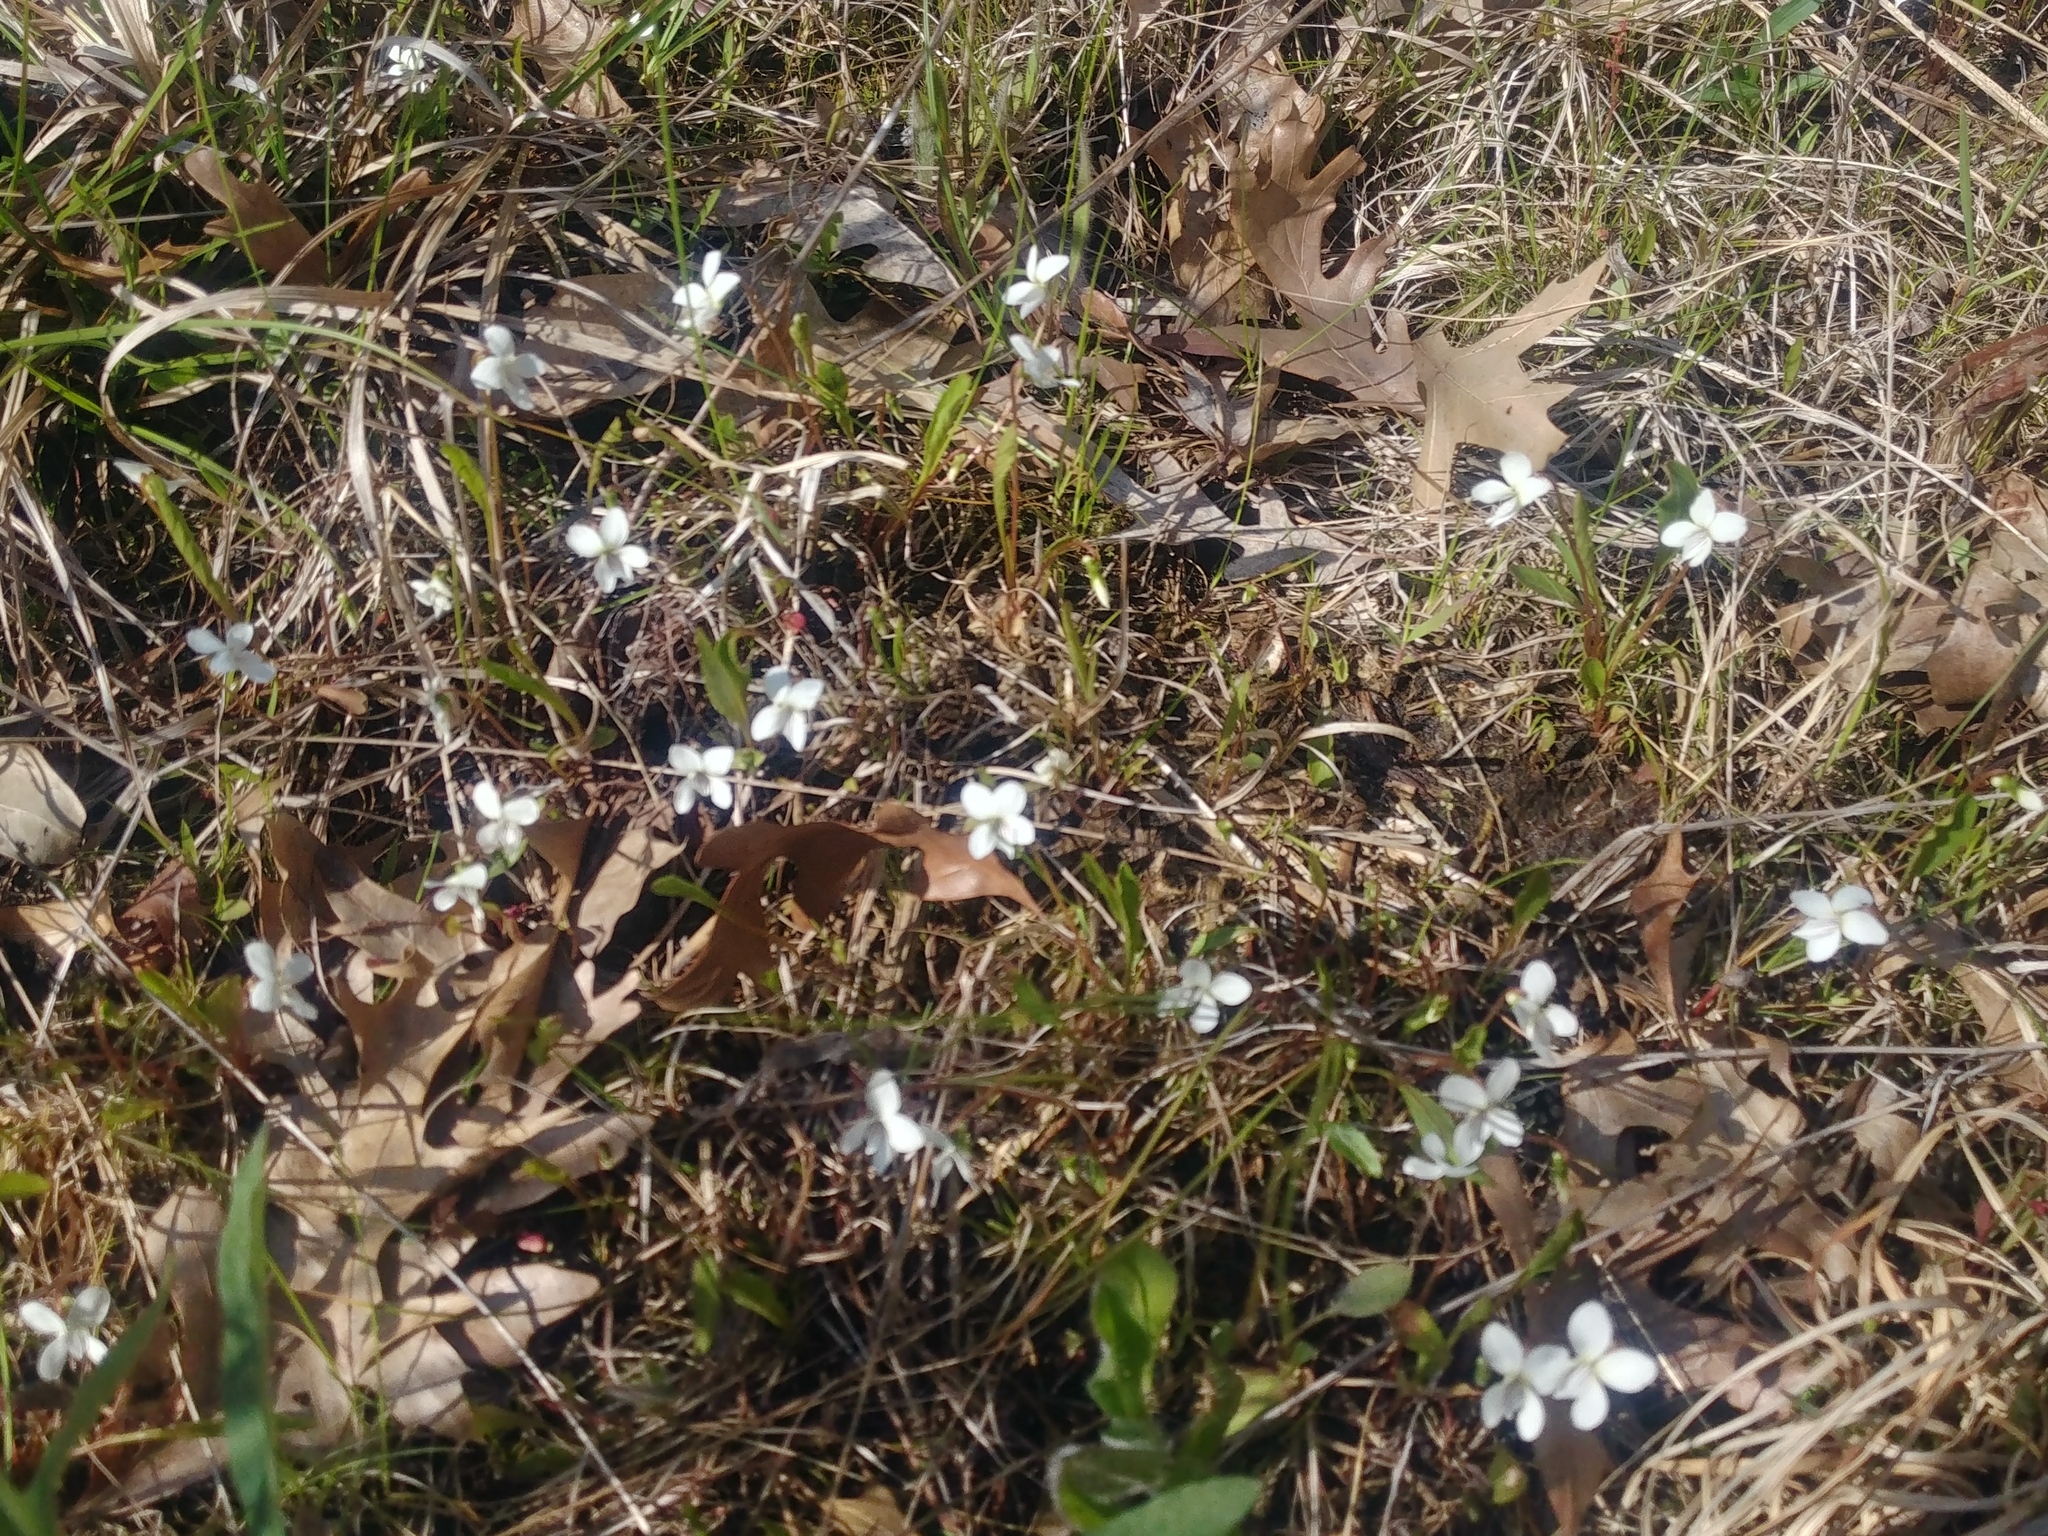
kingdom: Plantae
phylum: Tracheophyta
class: Magnoliopsida
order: Malpighiales
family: Violaceae
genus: Viola
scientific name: Viola lanceolata
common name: Bog white violet
